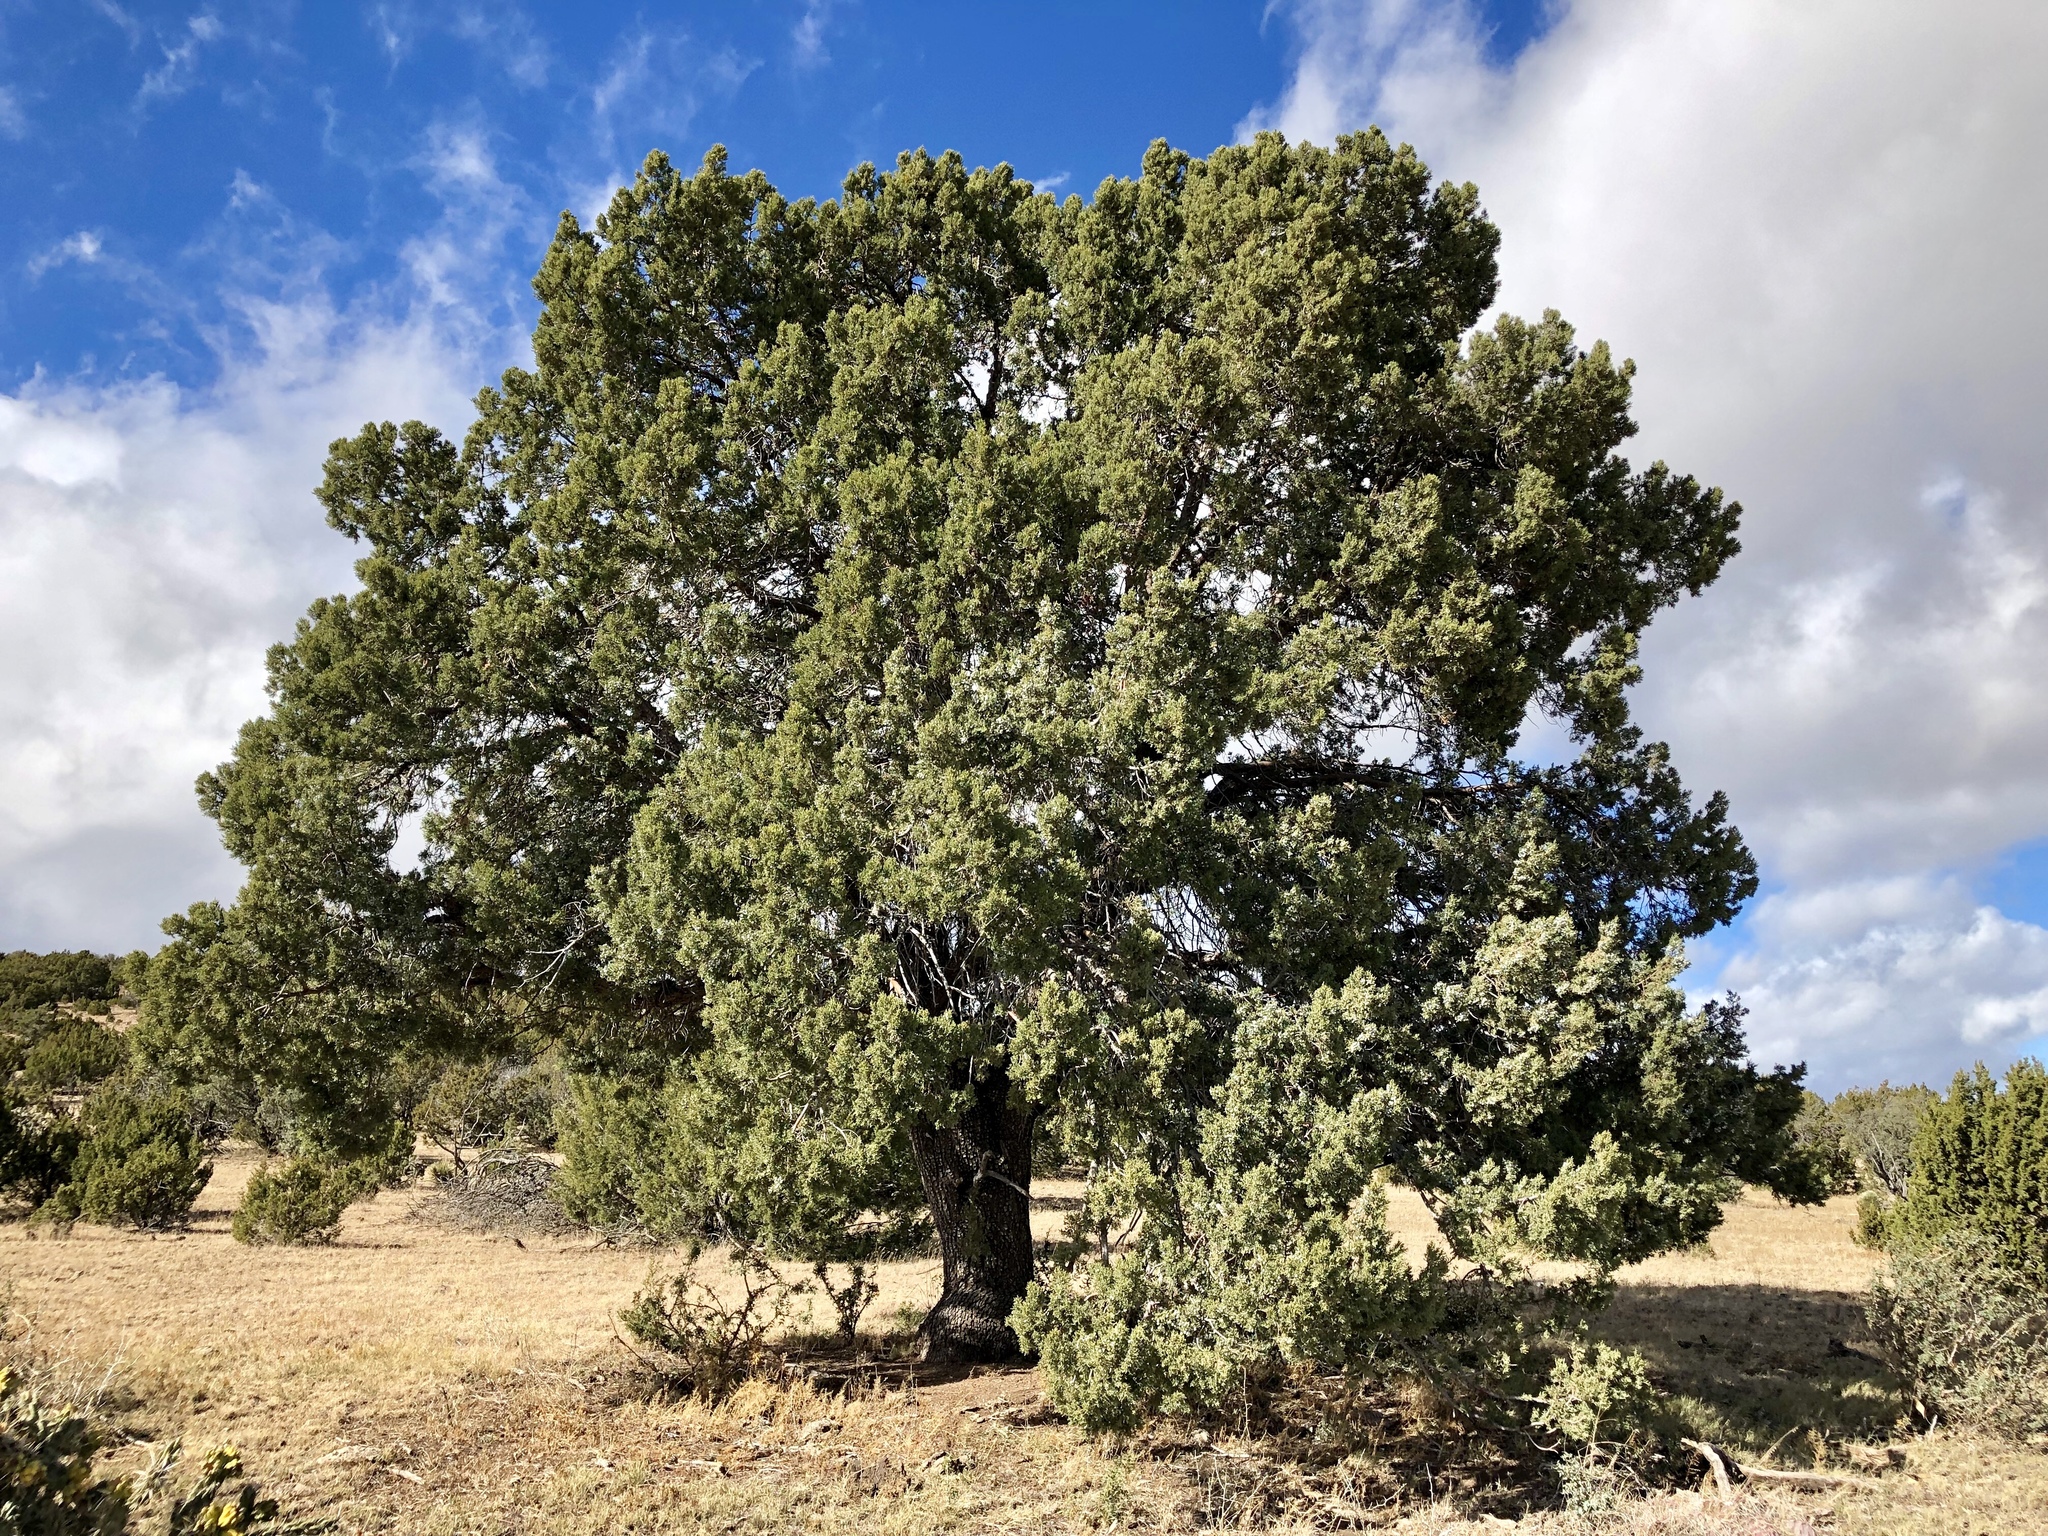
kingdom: Plantae
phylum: Tracheophyta
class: Pinopsida
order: Pinales
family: Cupressaceae
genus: Juniperus
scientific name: Juniperus deppeana
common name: Alligator juniper
